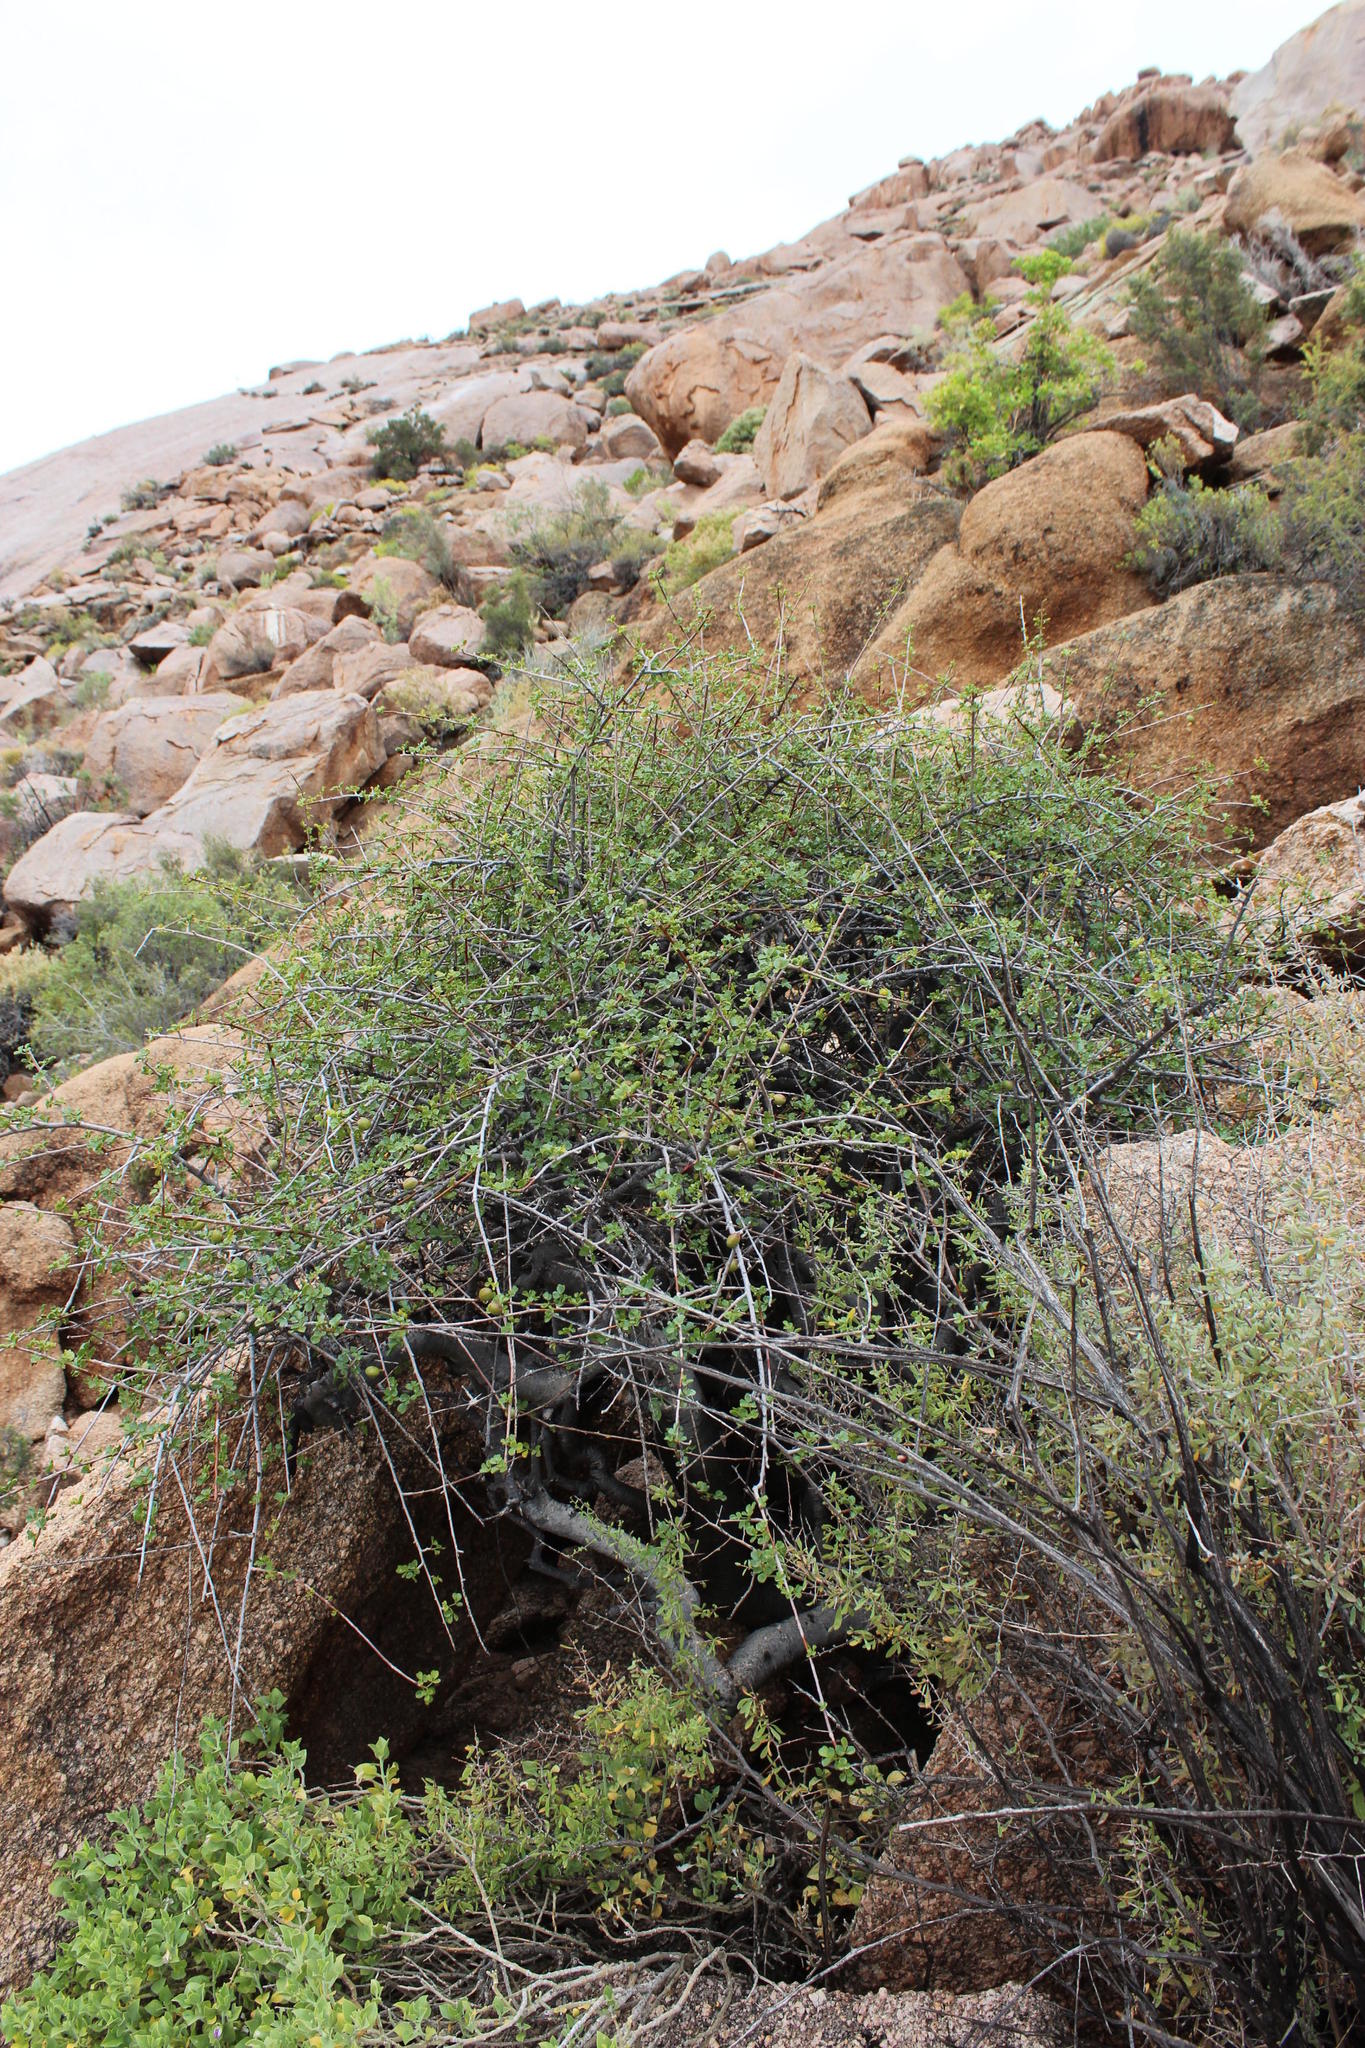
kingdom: Plantae
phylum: Tracheophyta
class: Magnoliopsida
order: Sapindales
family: Burseraceae
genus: Commiphora
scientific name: Commiphora capensis
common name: Namaqua commiphora
